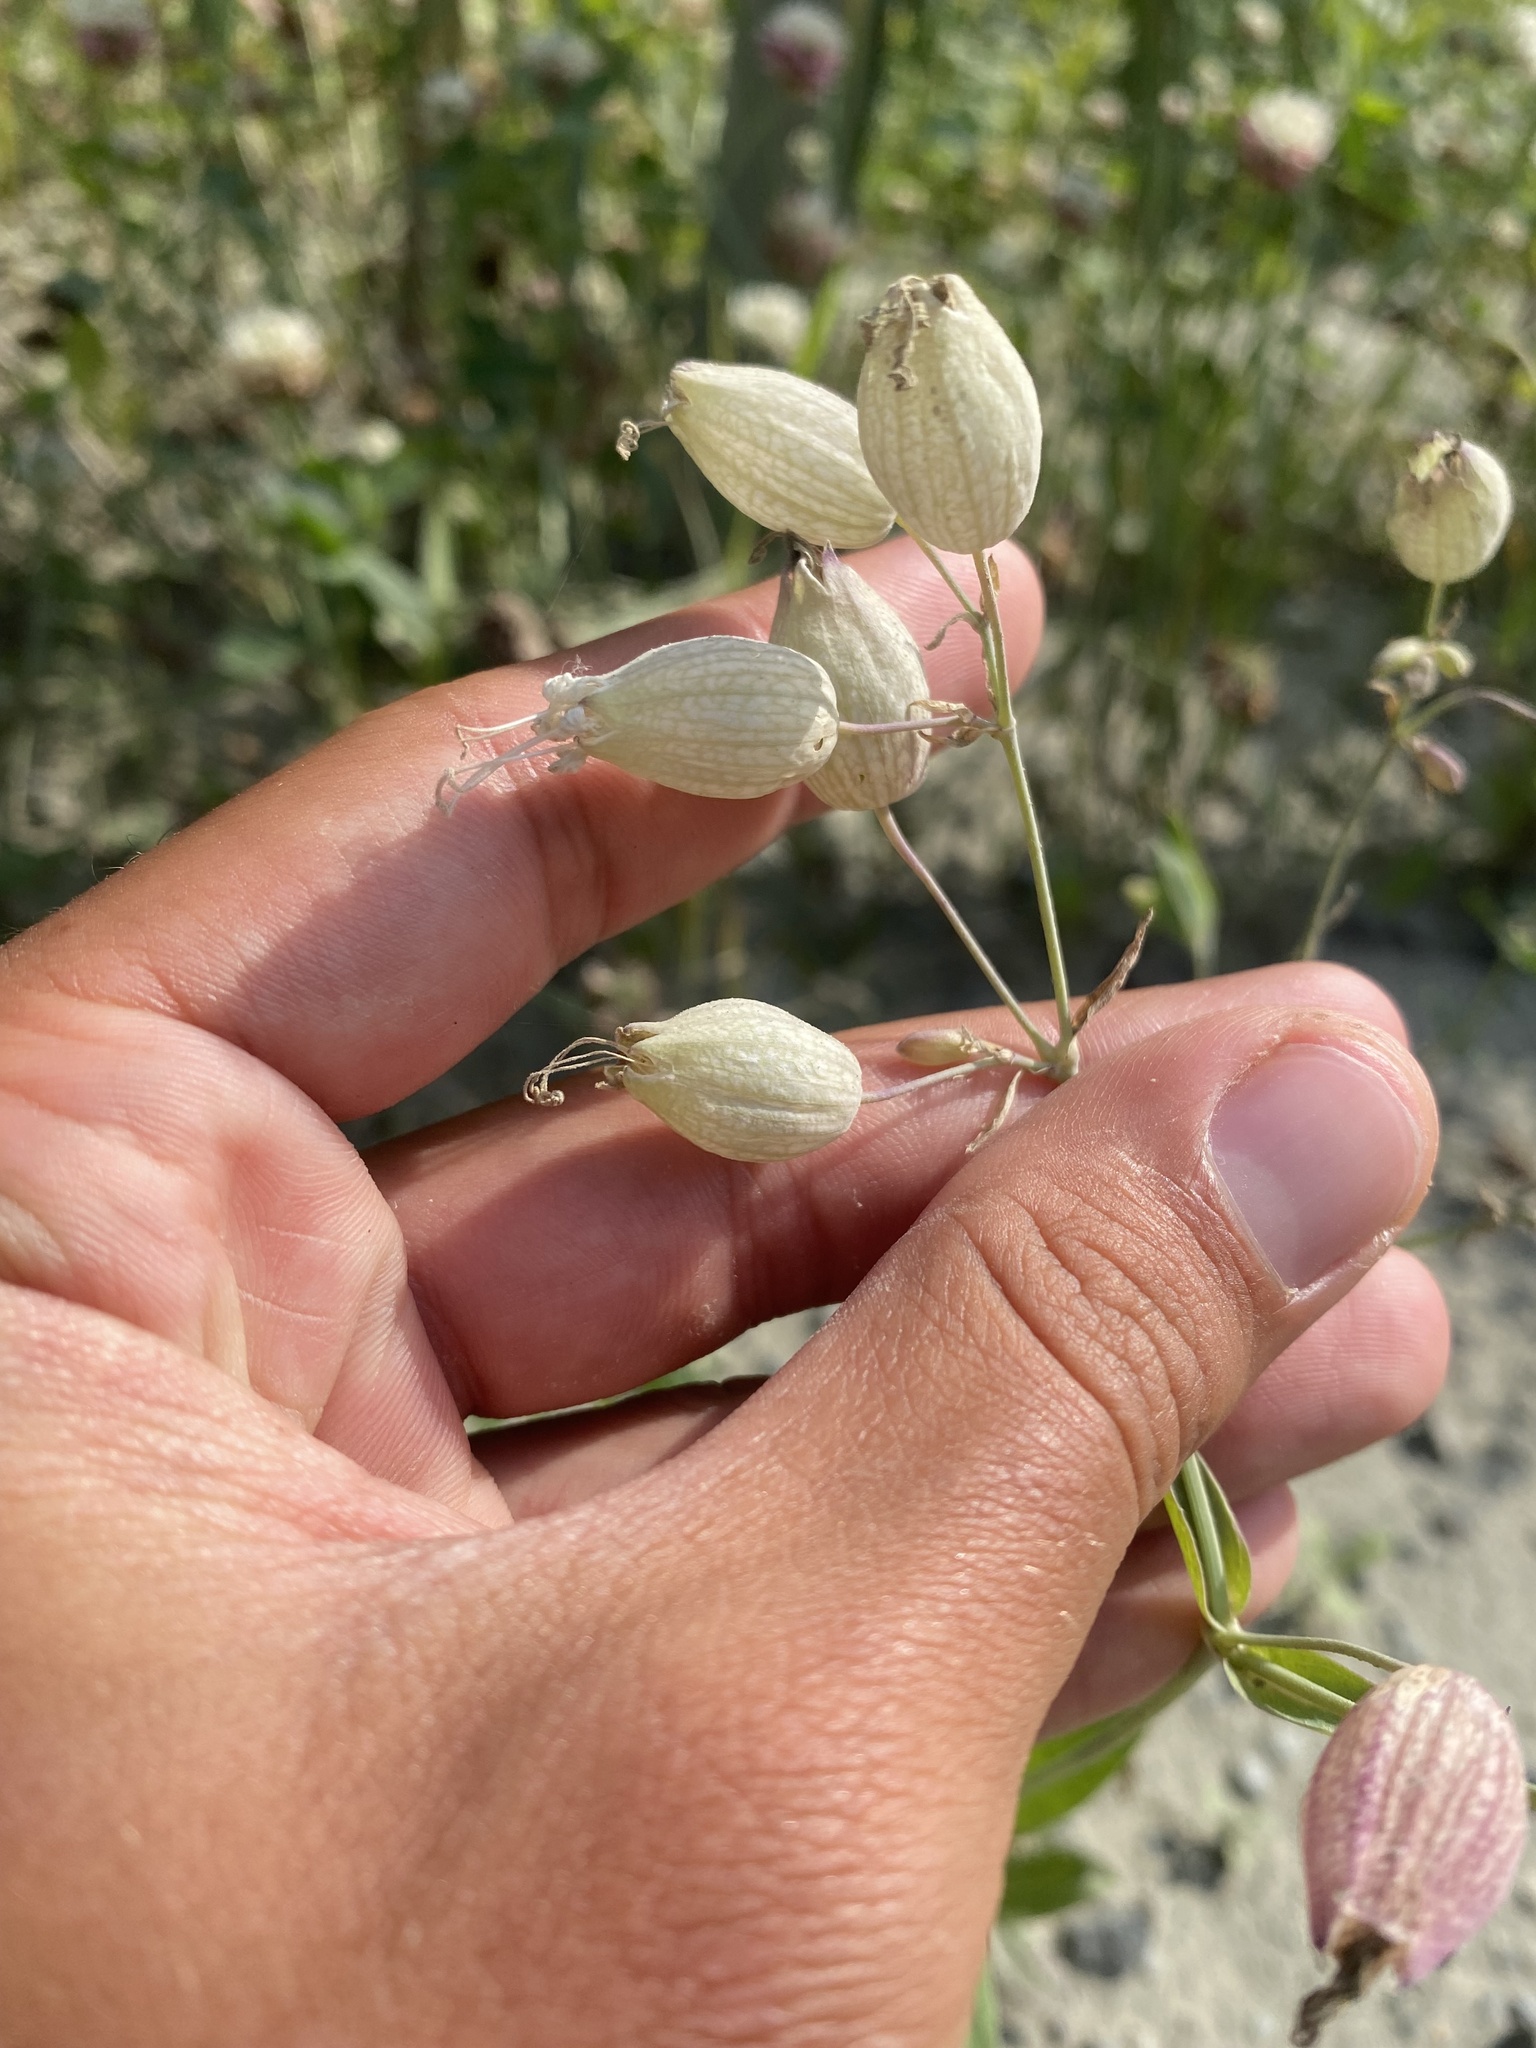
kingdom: Plantae
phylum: Tracheophyta
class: Magnoliopsida
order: Caryophyllales
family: Caryophyllaceae
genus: Silene
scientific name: Silene vulgaris
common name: Bladder campion
